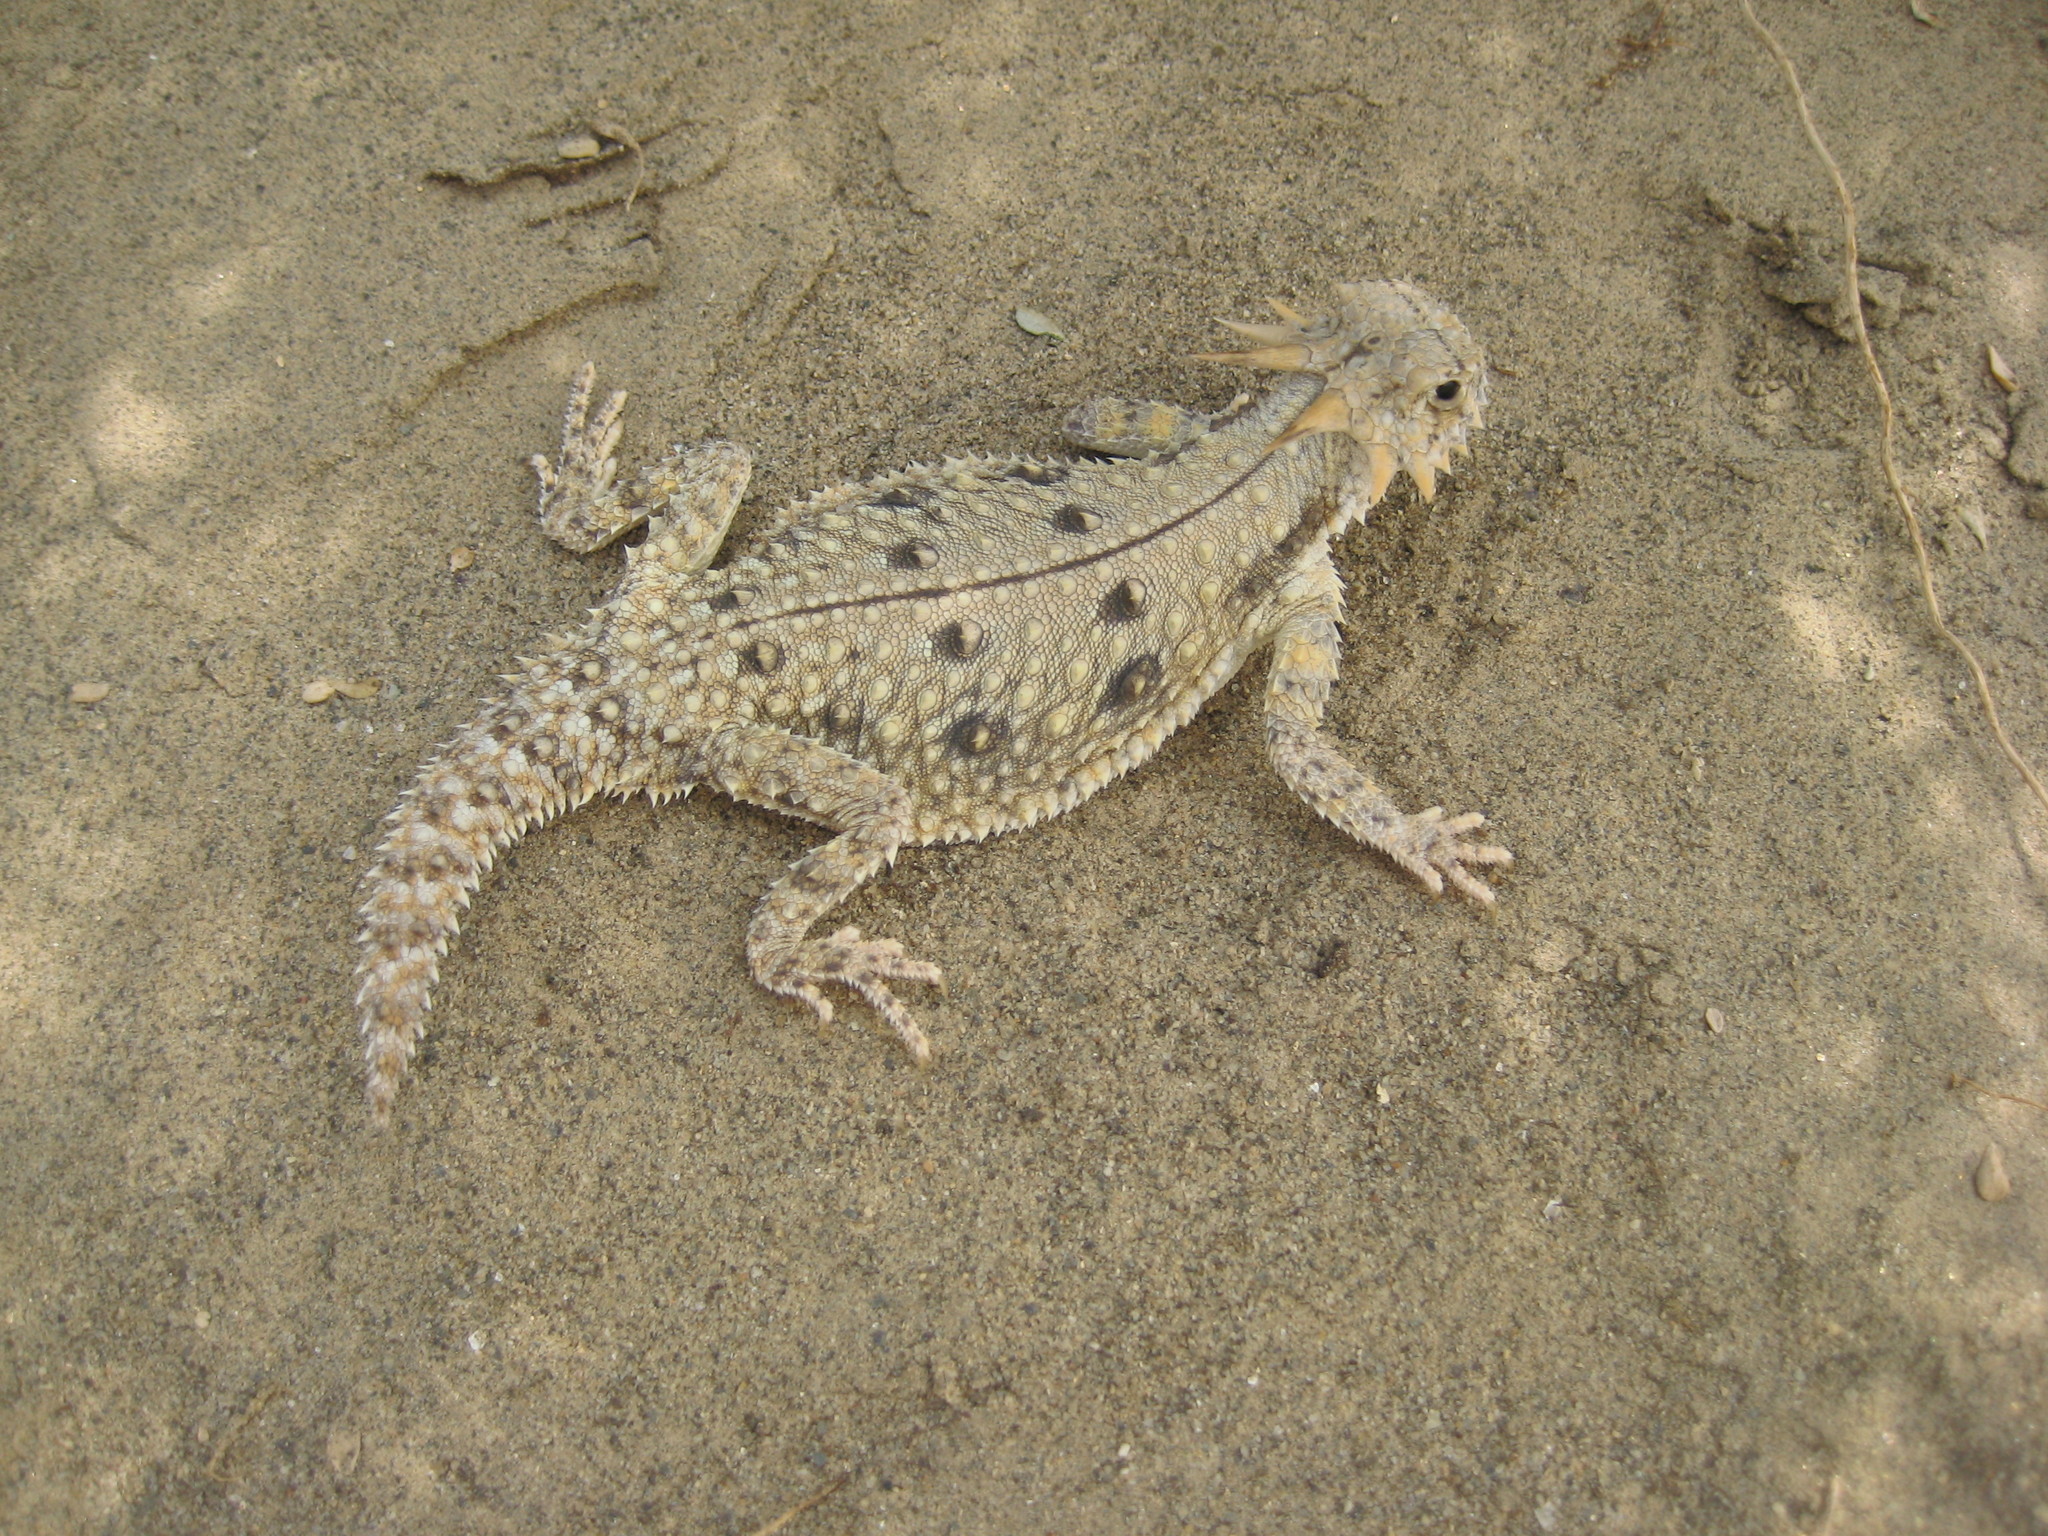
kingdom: Animalia
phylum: Chordata
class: Squamata
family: Phrynosomatidae
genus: Phrynosoma
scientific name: Phrynosoma mcallii
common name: Flat-tailed horned lizard
